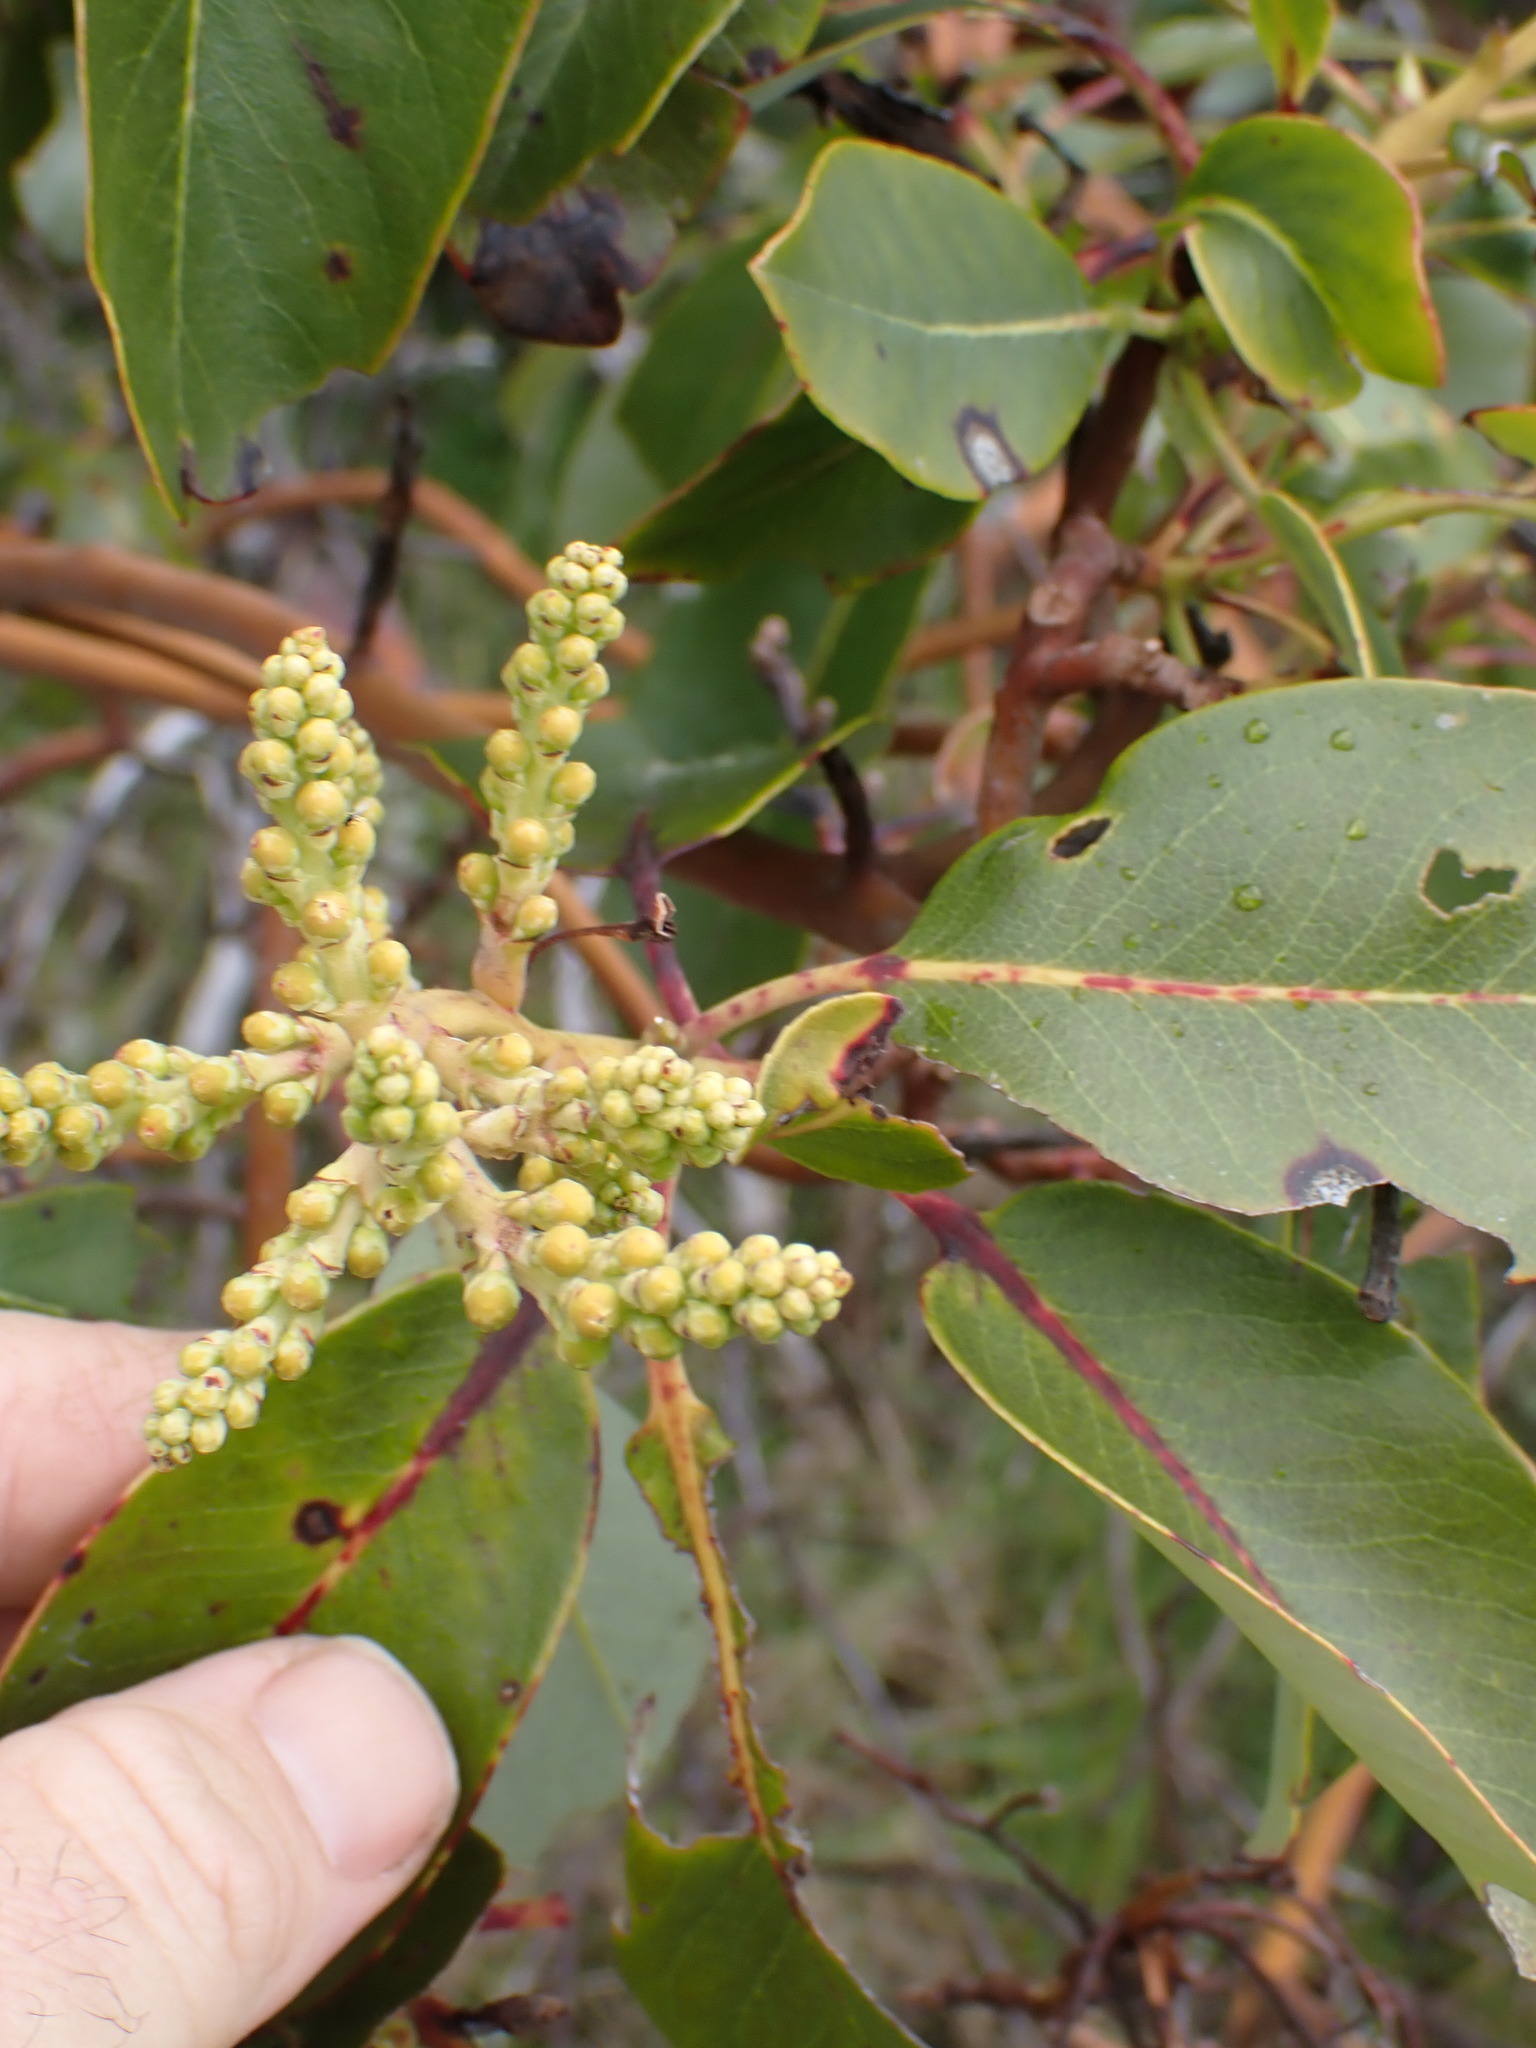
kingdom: Plantae
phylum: Tracheophyta
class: Magnoliopsida
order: Ericales
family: Ericaceae
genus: Arbutus
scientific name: Arbutus menziesii
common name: Pacific madrone
